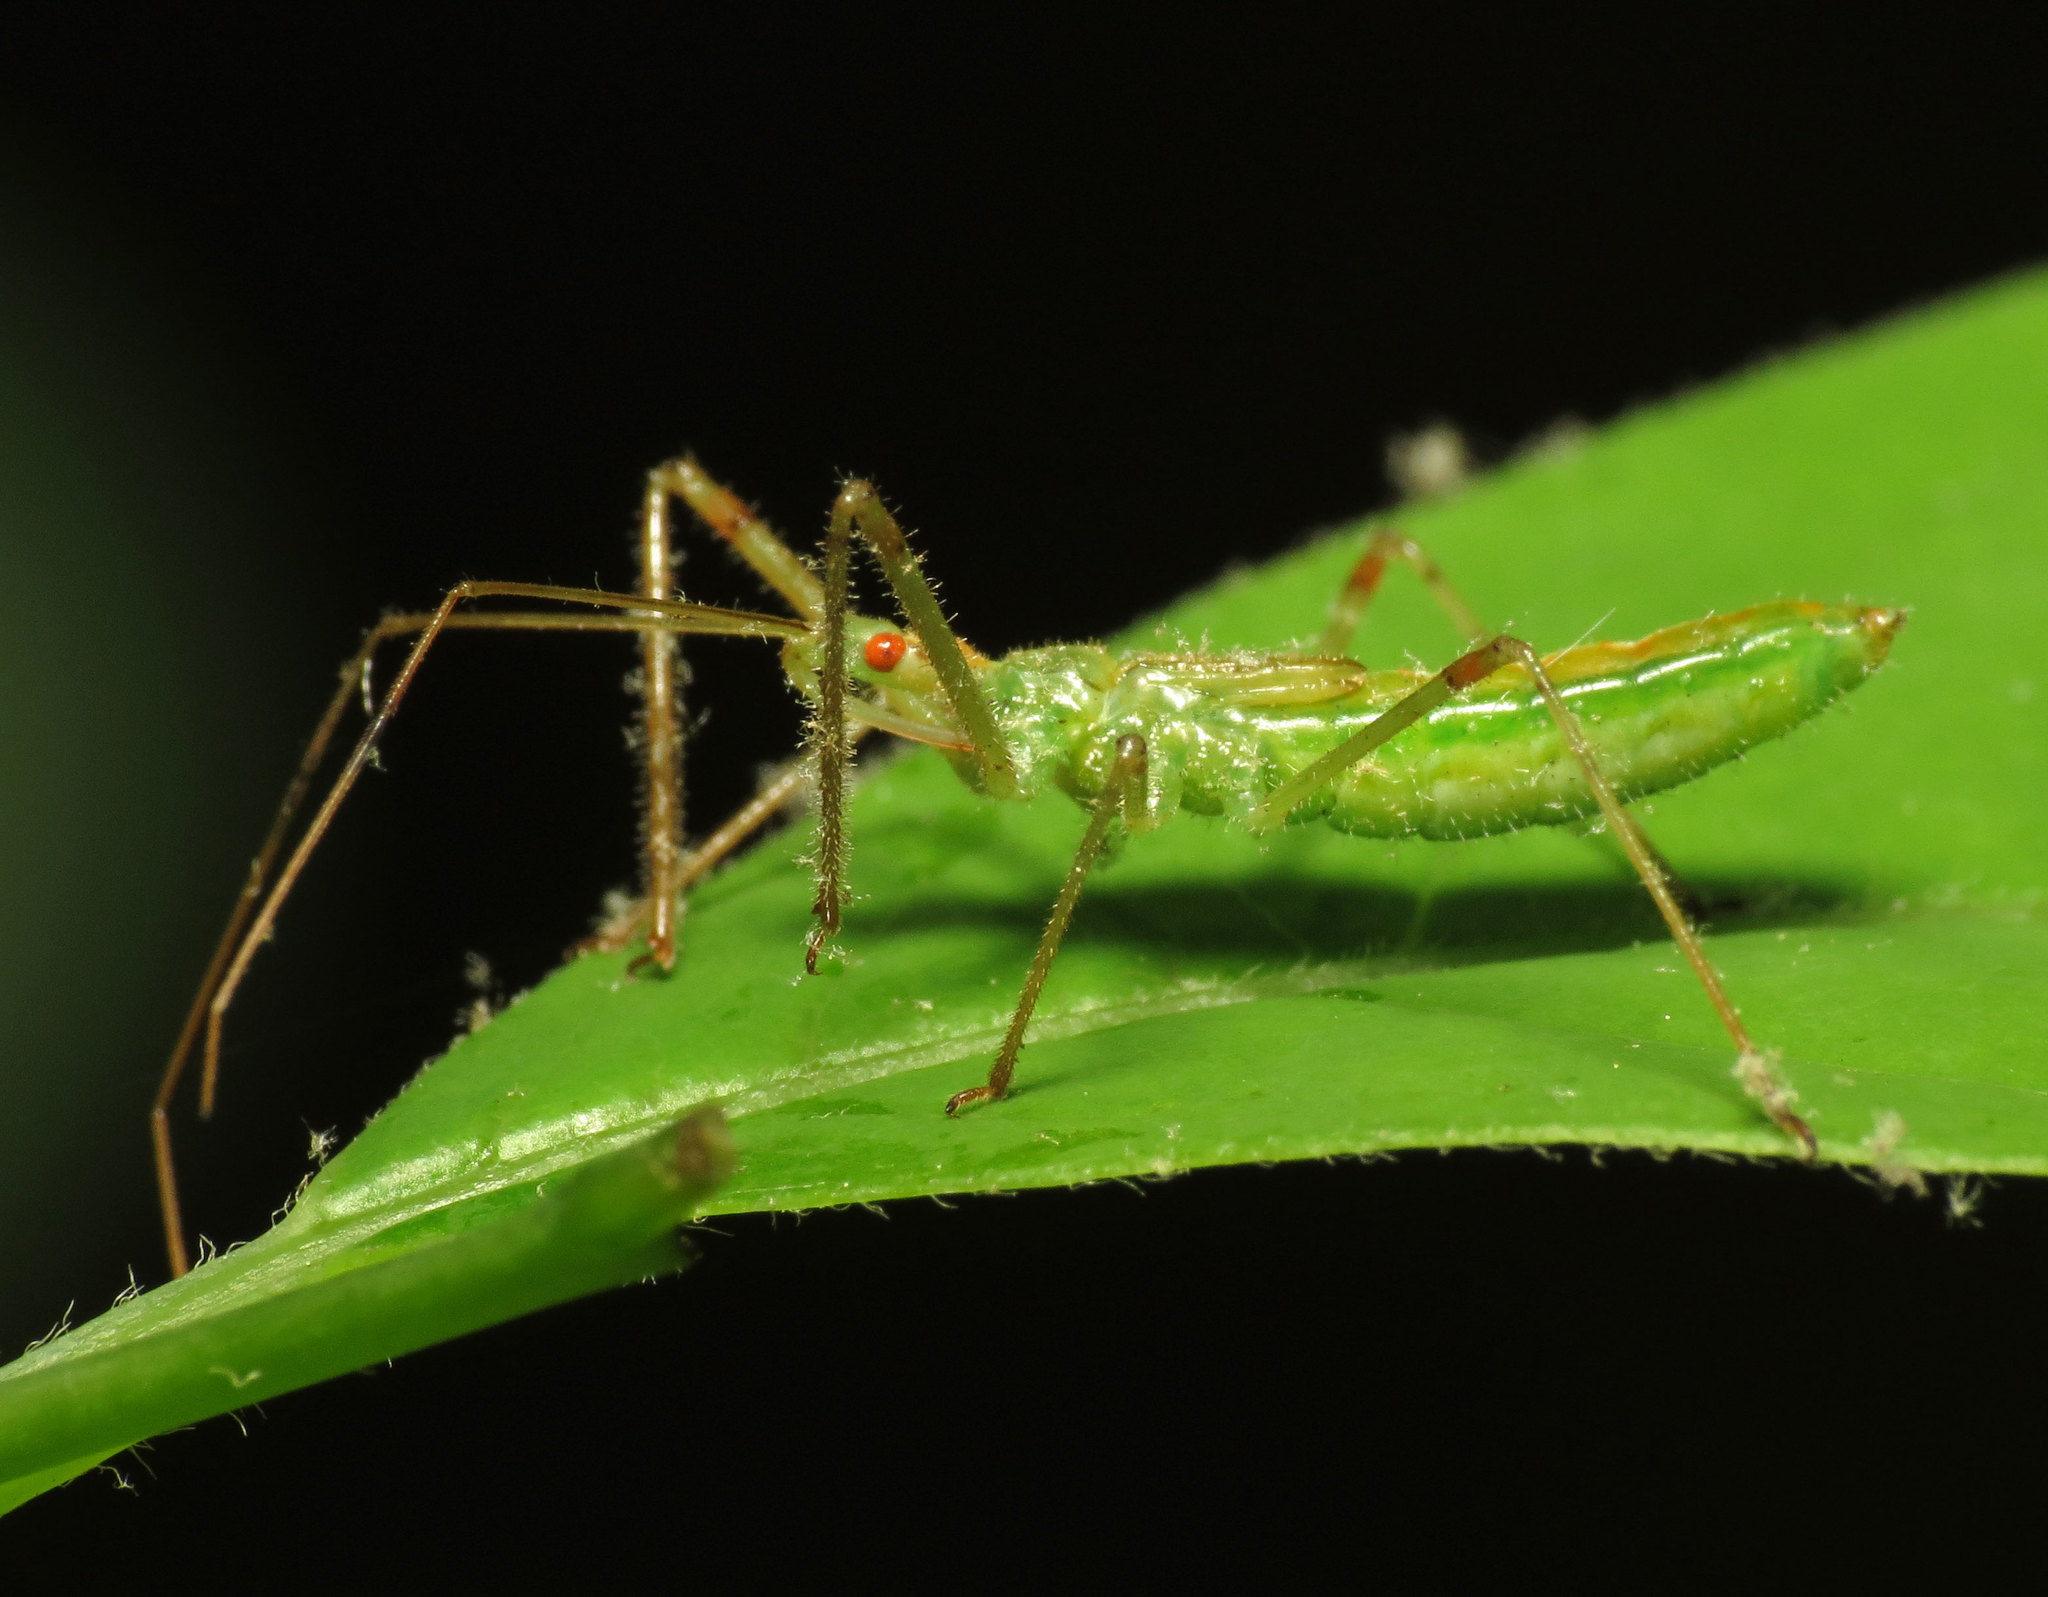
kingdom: Animalia
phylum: Arthropoda
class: Insecta
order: Hemiptera
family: Reduviidae
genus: Zelus
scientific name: Zelus luridus
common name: Pale green assassin bug
